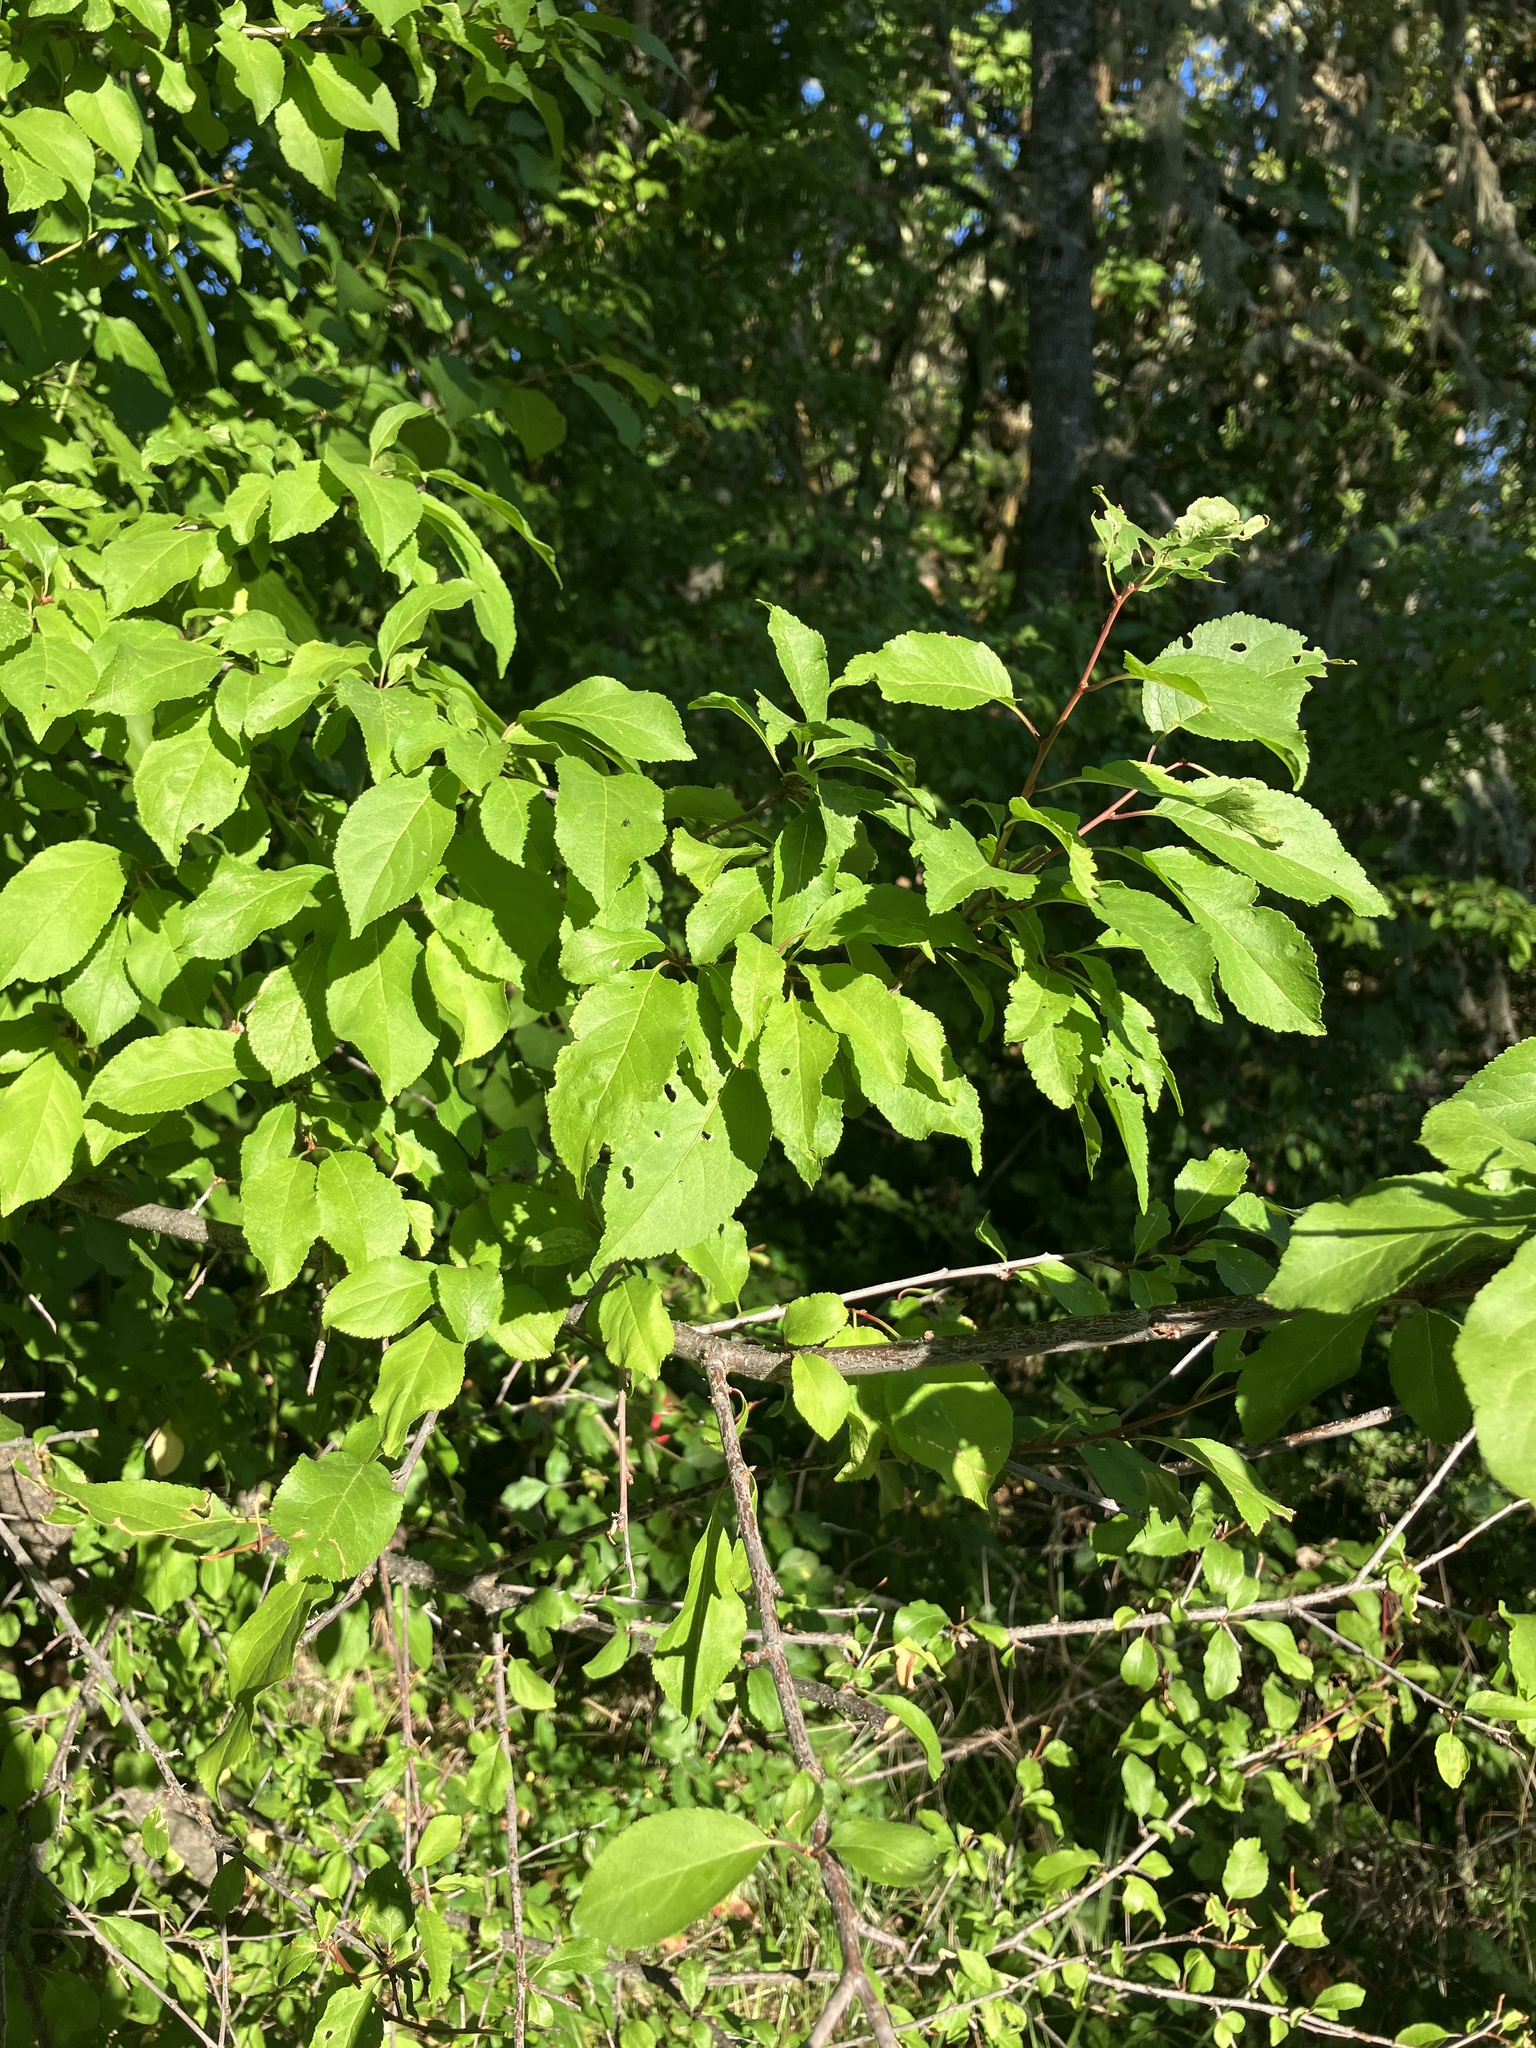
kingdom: Plantae
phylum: Tracheophyta
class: Magnoliopsida
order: Rosales
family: Rosaceae
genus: Prunus
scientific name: Prunus domestica
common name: Wild plum
